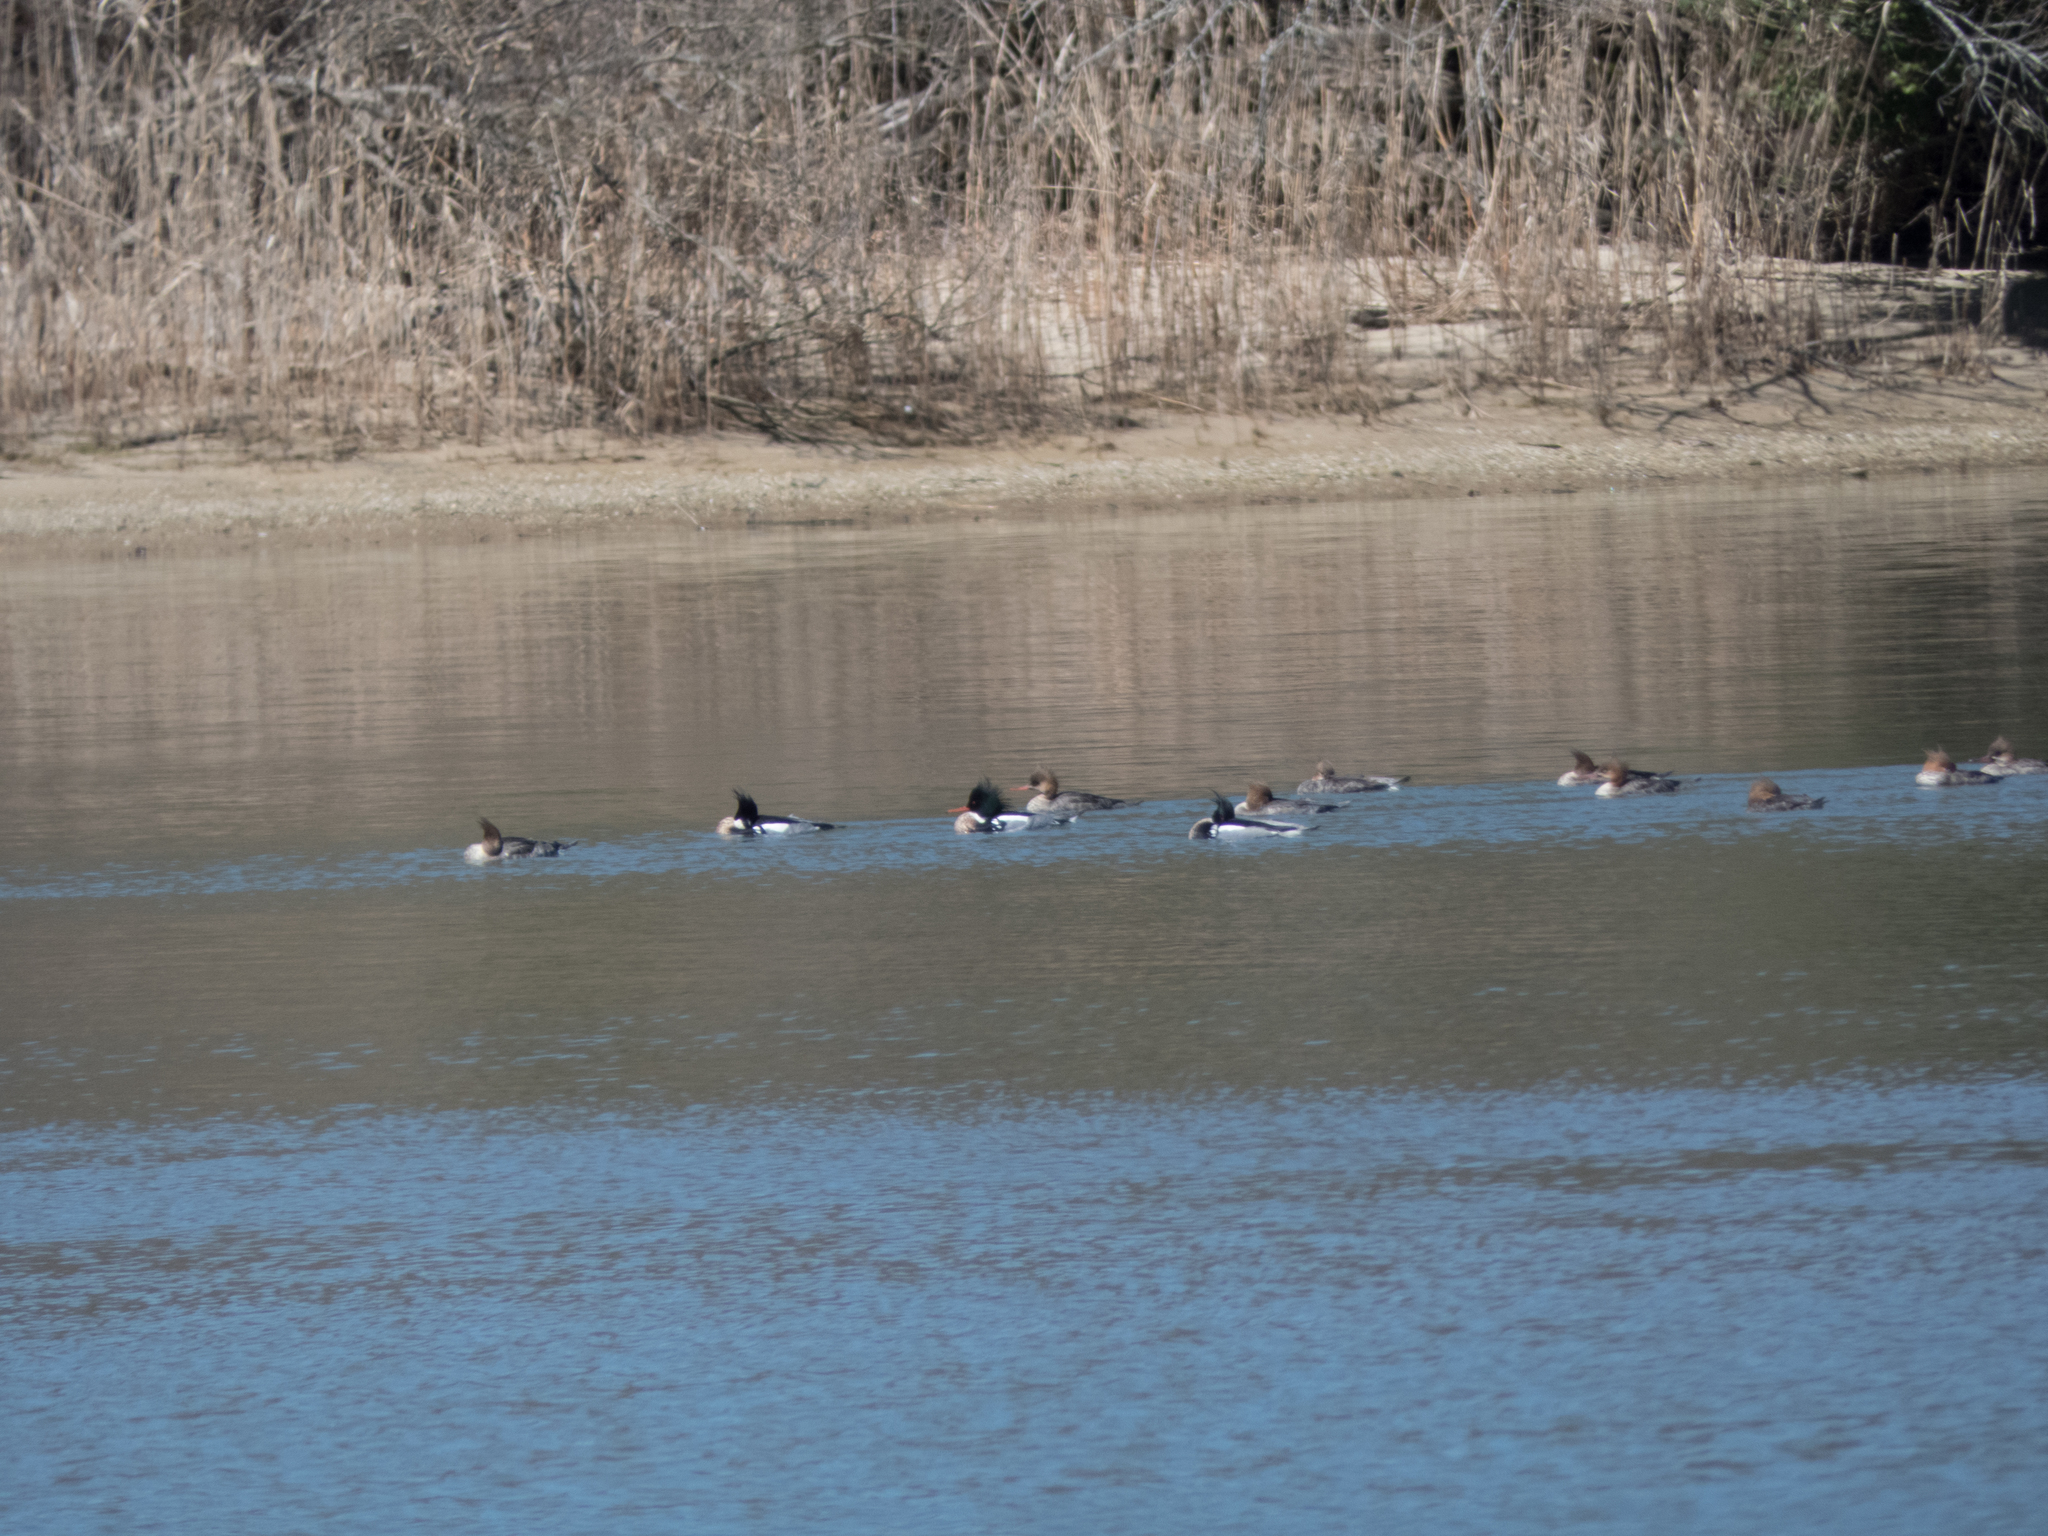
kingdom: Animalia
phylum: Chordata
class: Aves
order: Anseriformes
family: Anatidae
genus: Mergus
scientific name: Mergus serrator
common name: Red-breasted merganser
